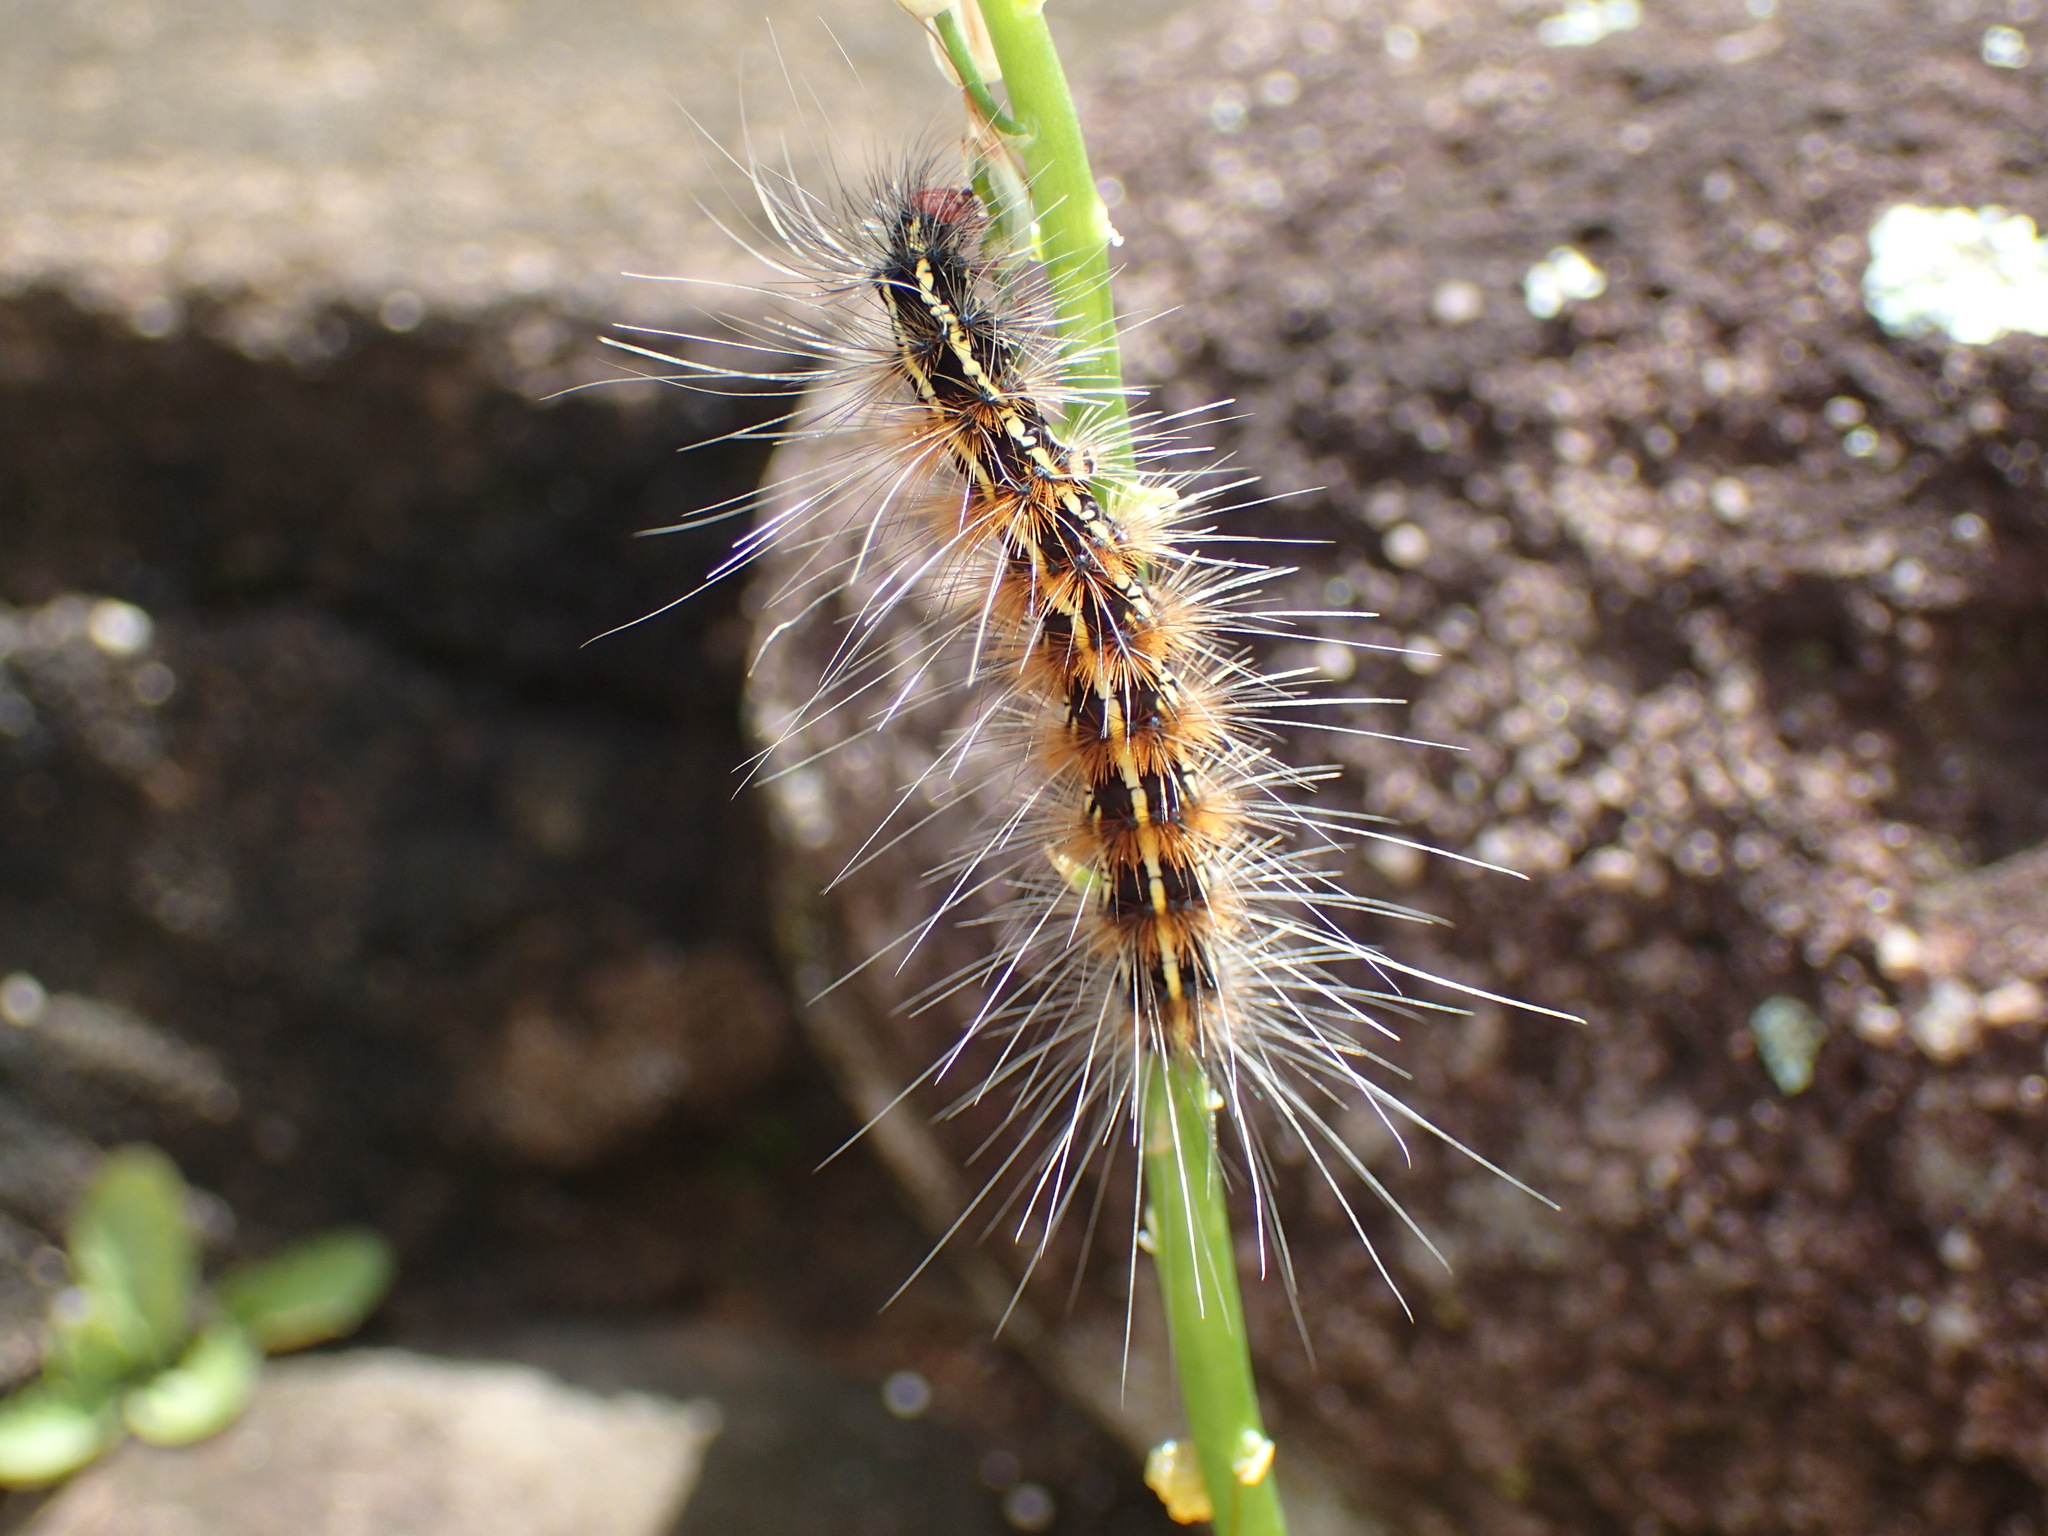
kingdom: Animalia
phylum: Arthropoda
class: Insecta
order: Lepidoptera
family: Erebidae
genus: Leucaloa
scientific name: Leucaloa eugraphica
